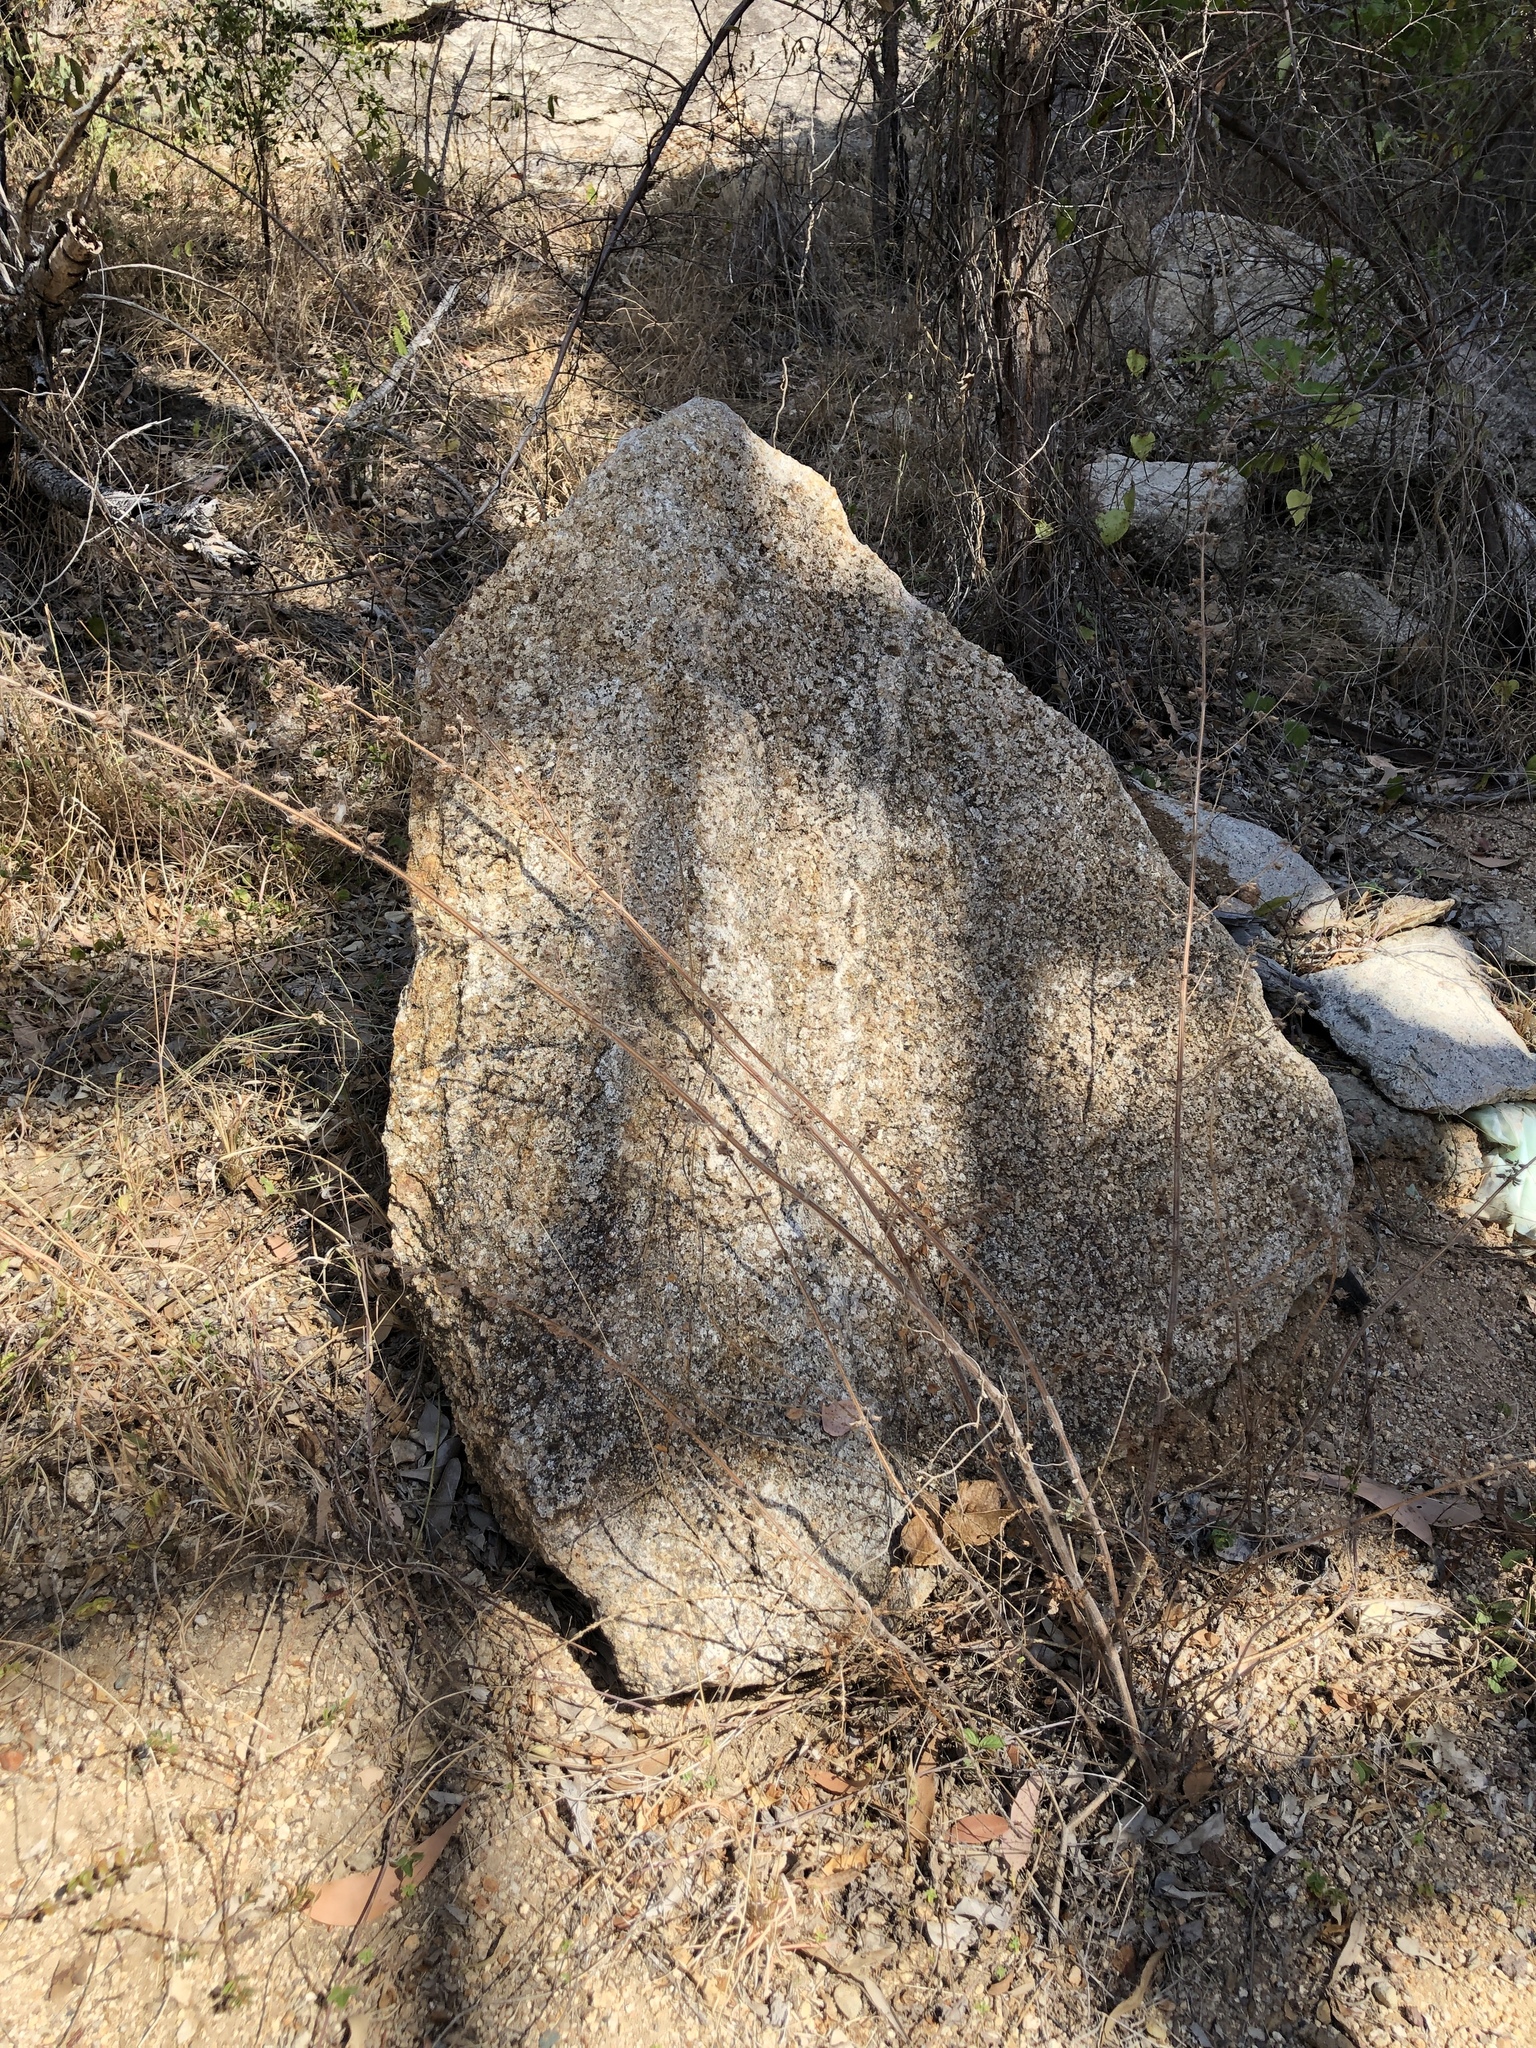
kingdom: Plantae
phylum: Tracheophyta
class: Magnoliopsida
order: Lamiales
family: Lamiaceae
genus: Mesosphaerum
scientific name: Mesosphaerum suaveolens
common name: Pignut
